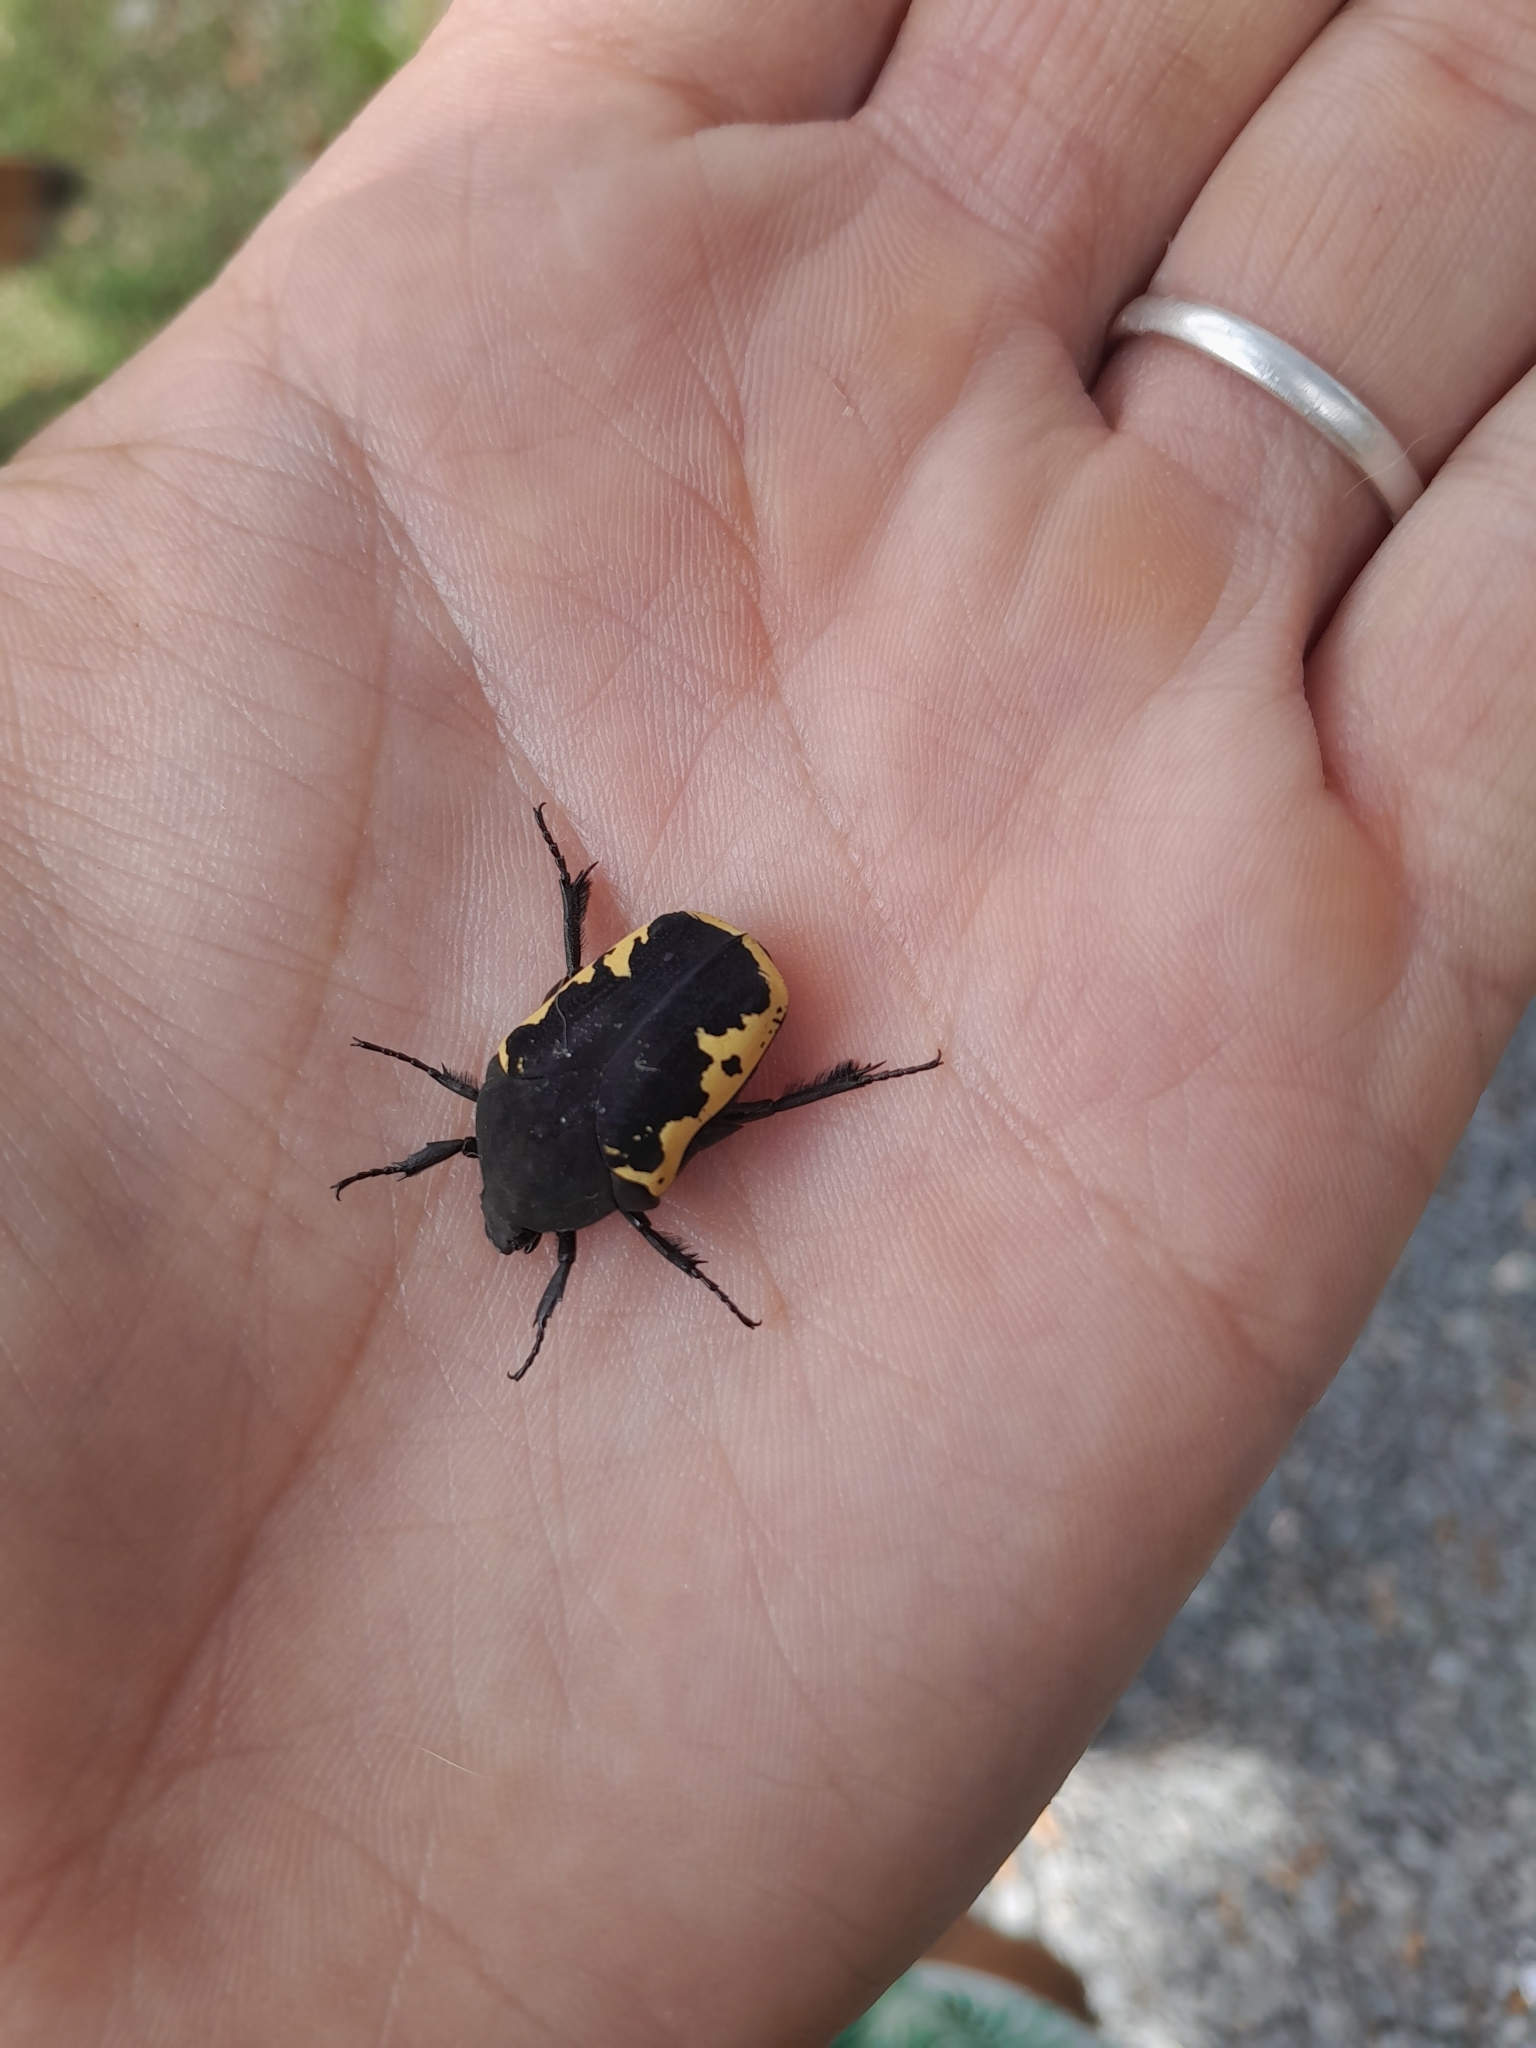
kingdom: Animalia
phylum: Arthropoda
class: Insecta
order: Coleoptera
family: Scarabaeidae
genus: Gymnetis
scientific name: Gymnetis pudibunda
